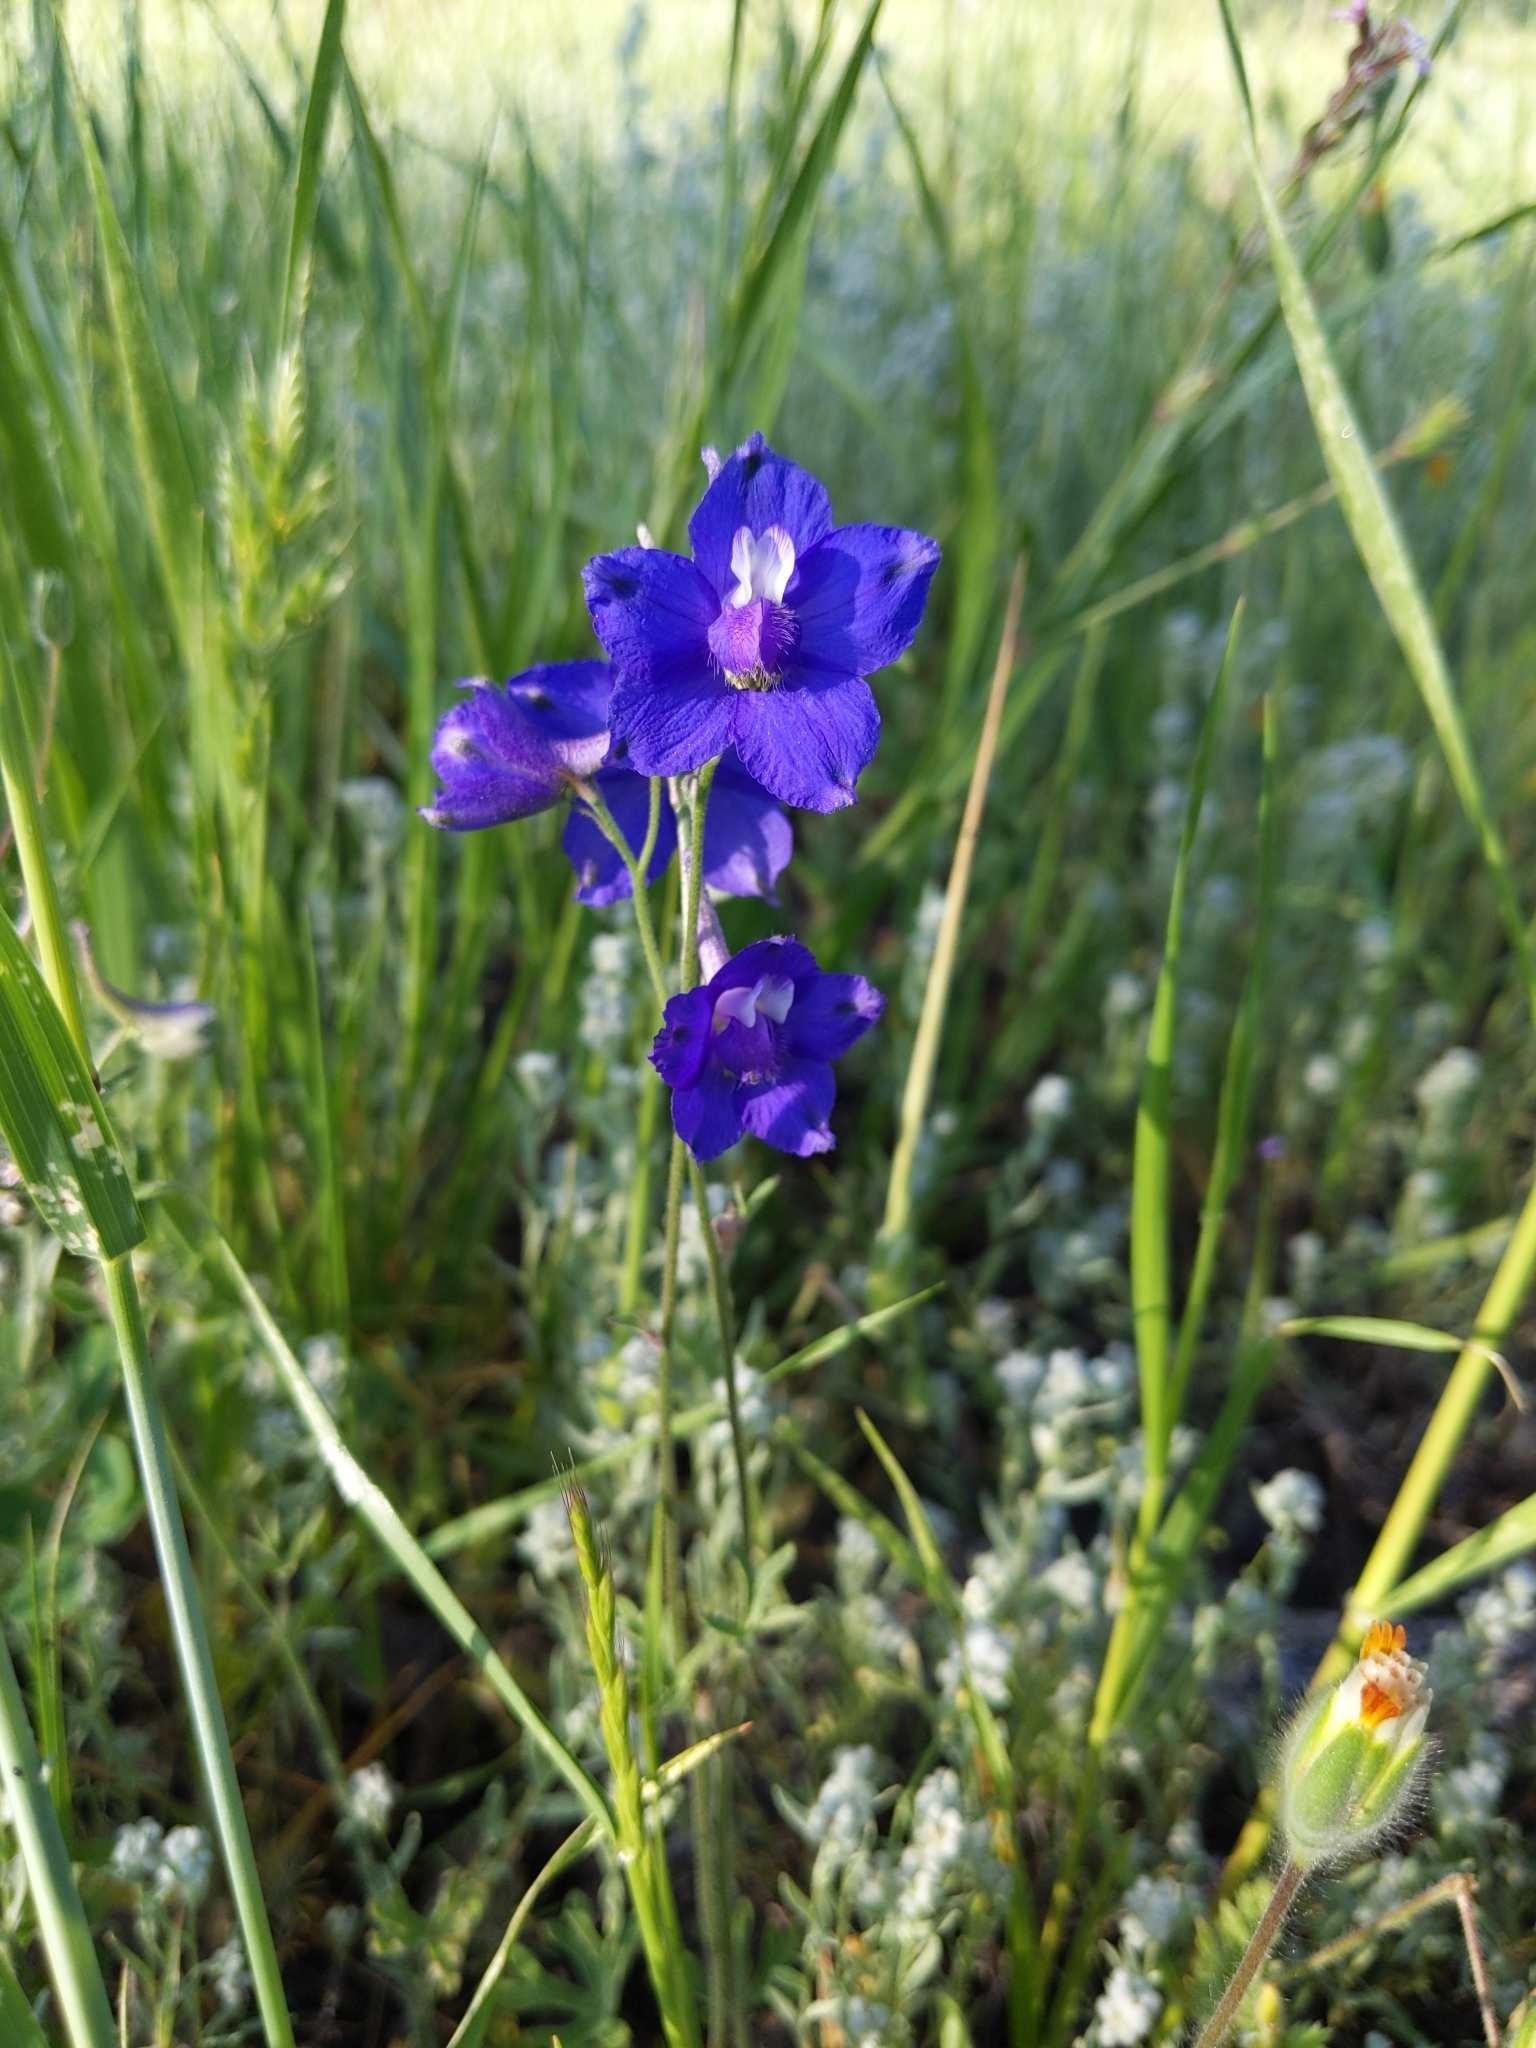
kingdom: Plantae
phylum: Tracheophyta
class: Magnoliopsida
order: Ranunculales
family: Ranunculaceae
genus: Delphinium
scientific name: Delphinium variegatum
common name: Royal larkspur
